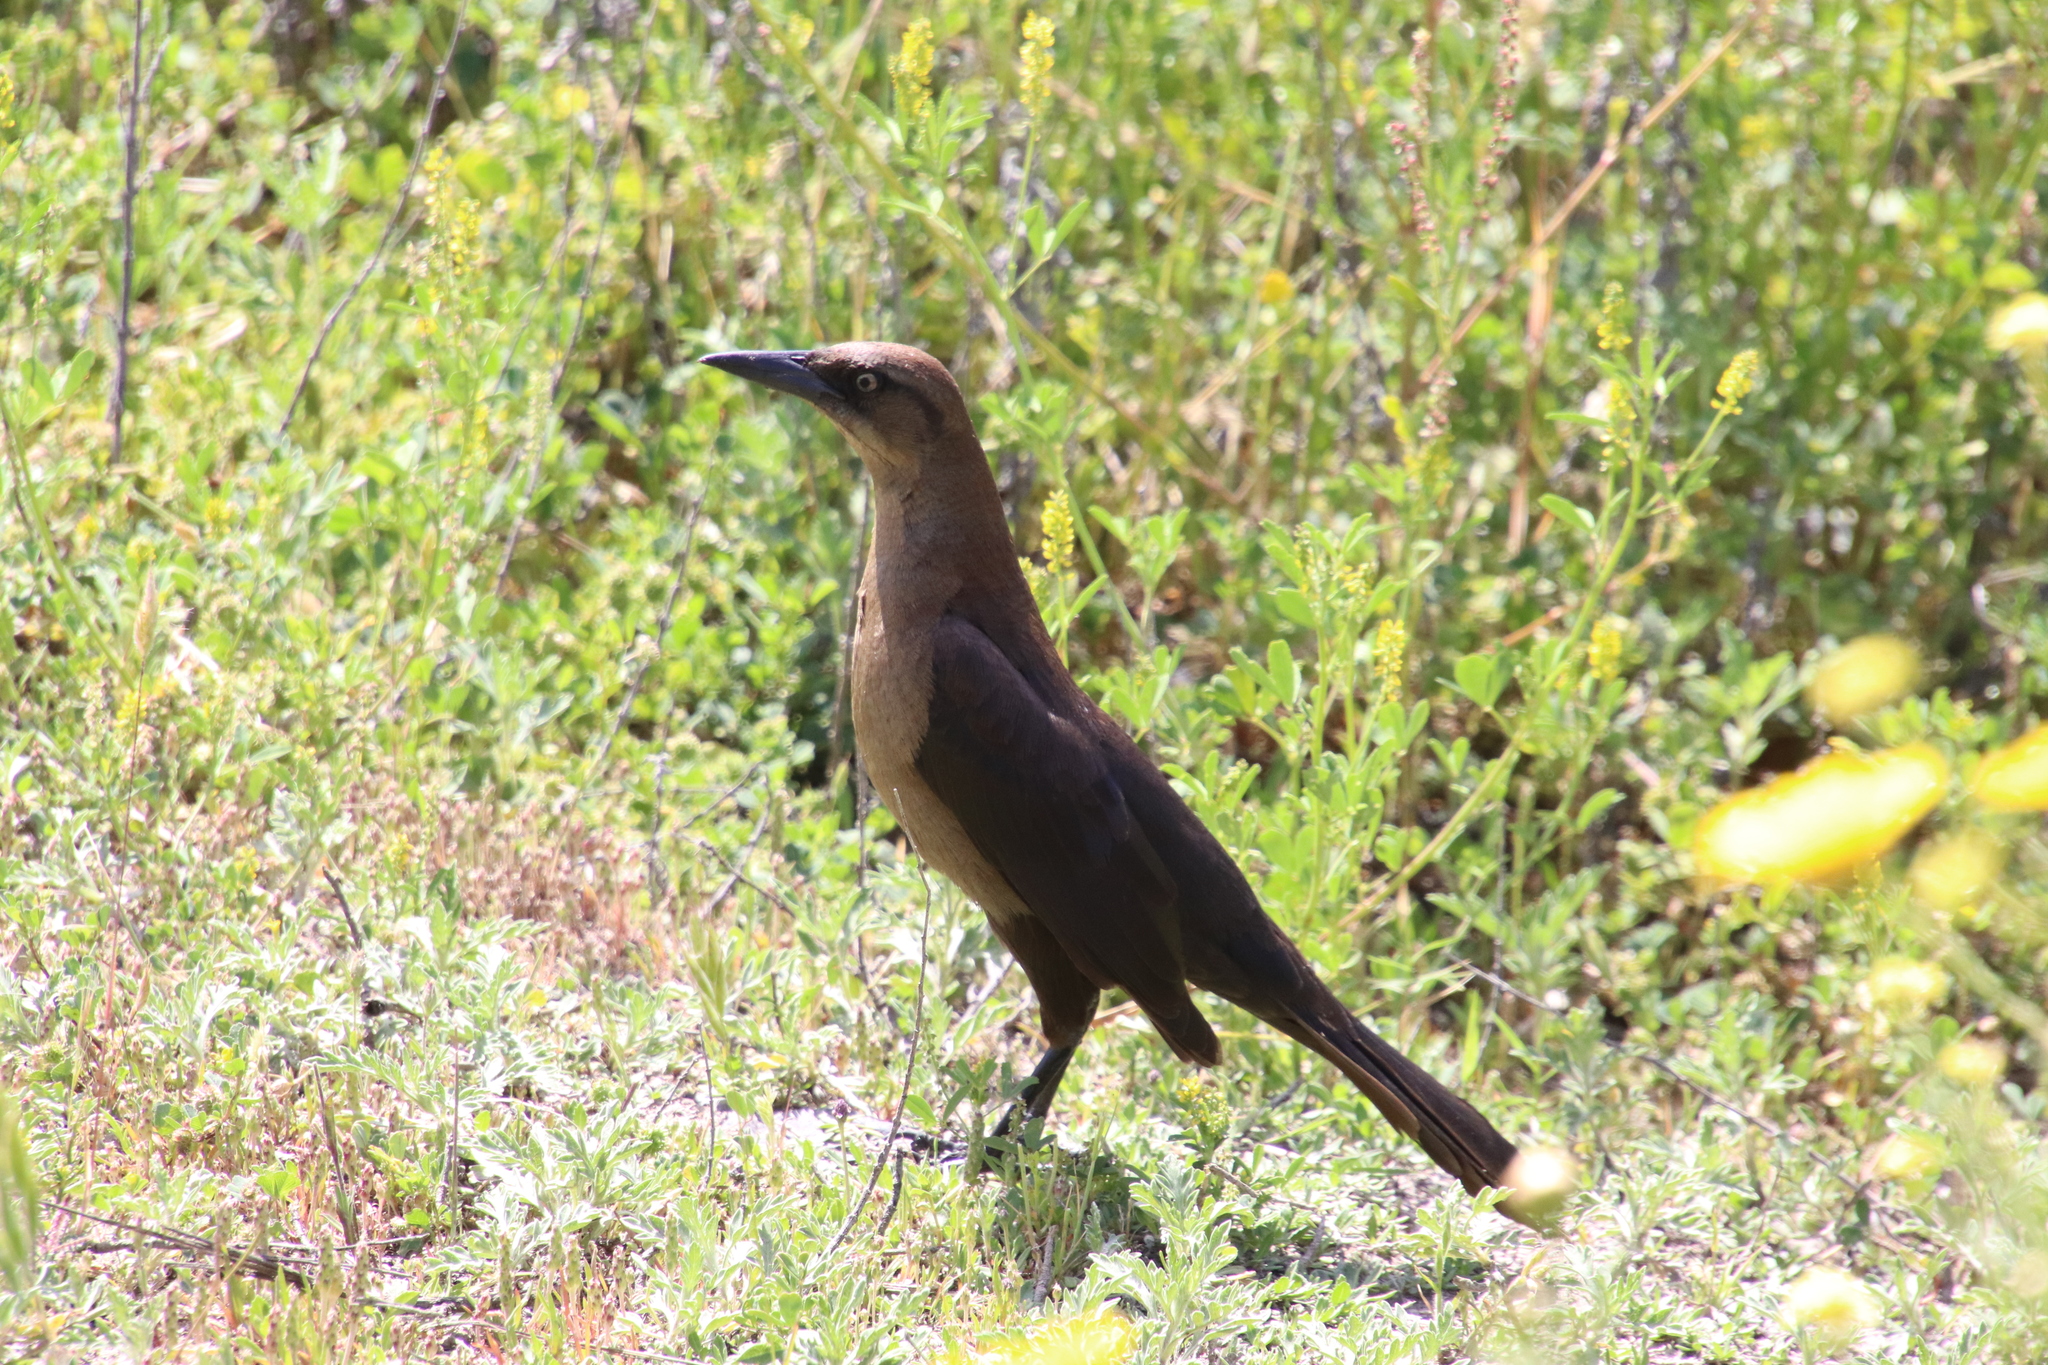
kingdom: Animalia
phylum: Chordata
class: Aves
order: Passeriformes
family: Icteridae
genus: Quiscalus
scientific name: Quiscalus mexicanus
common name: Great-tailed grackle
